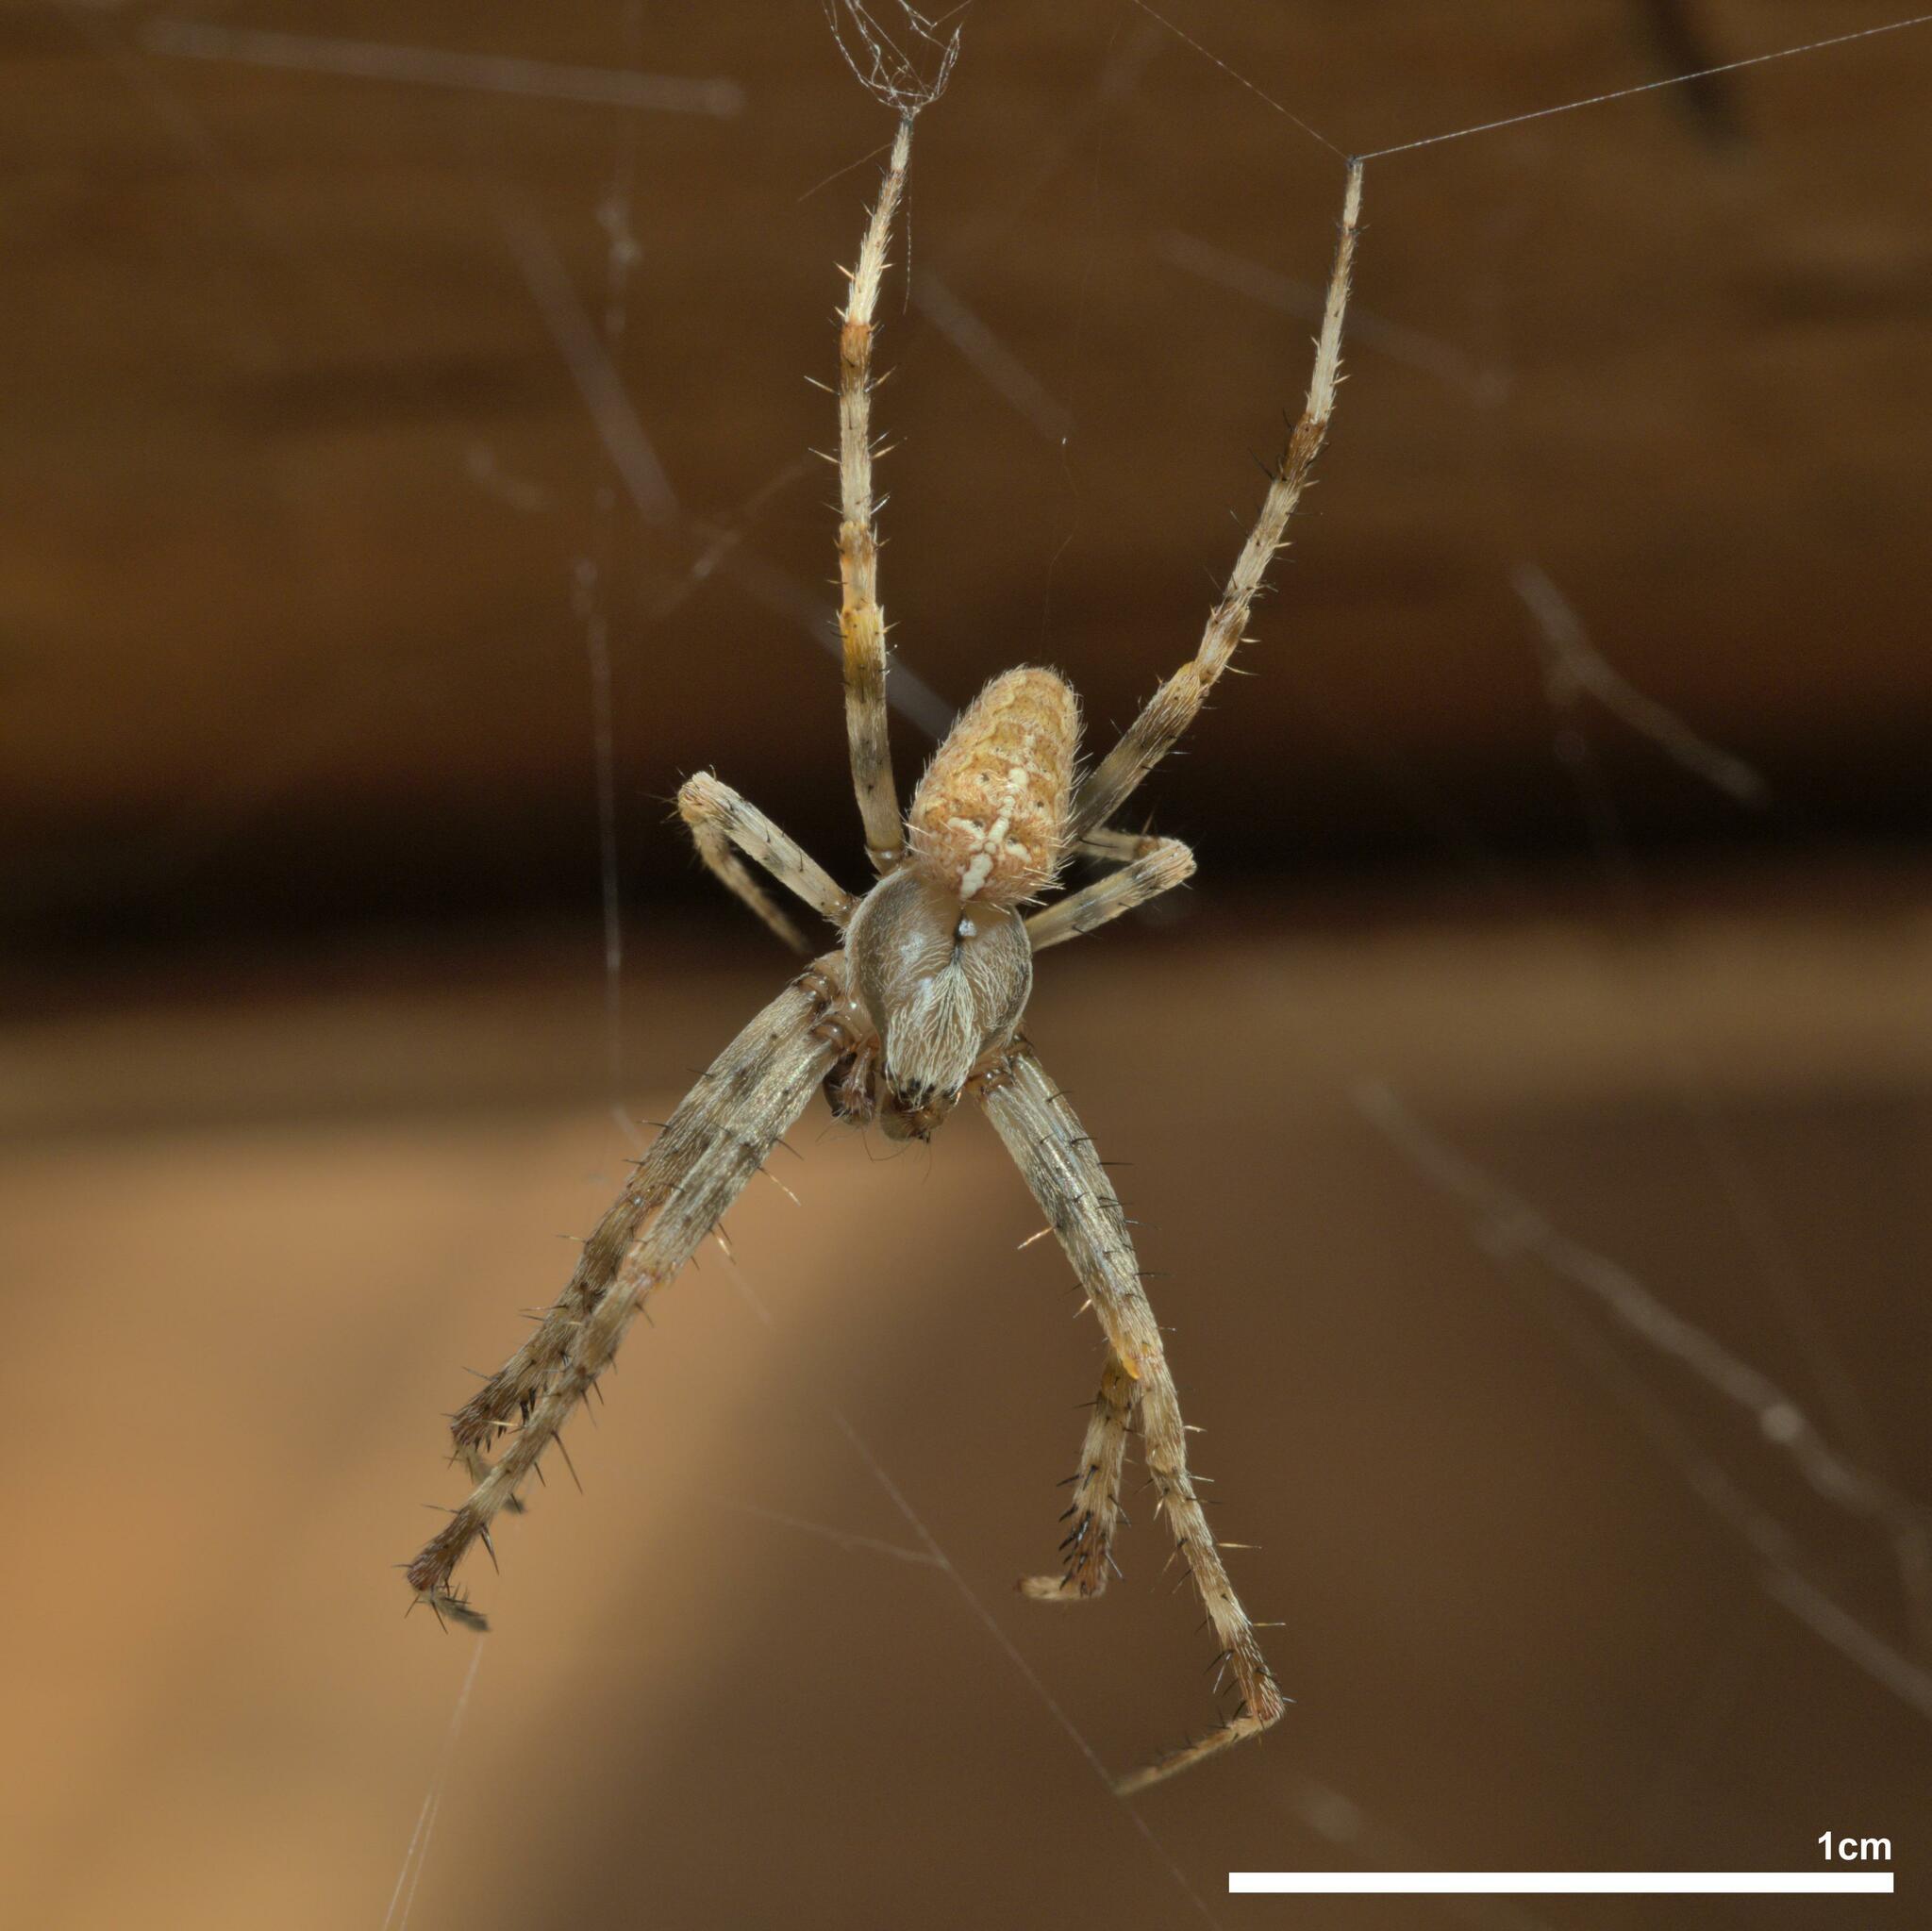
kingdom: Animalia
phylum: Arthropoda
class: Arachnida
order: Araneae
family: Araneidae
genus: Araneus
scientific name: Araneus diadematus
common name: Cross orbweaver
